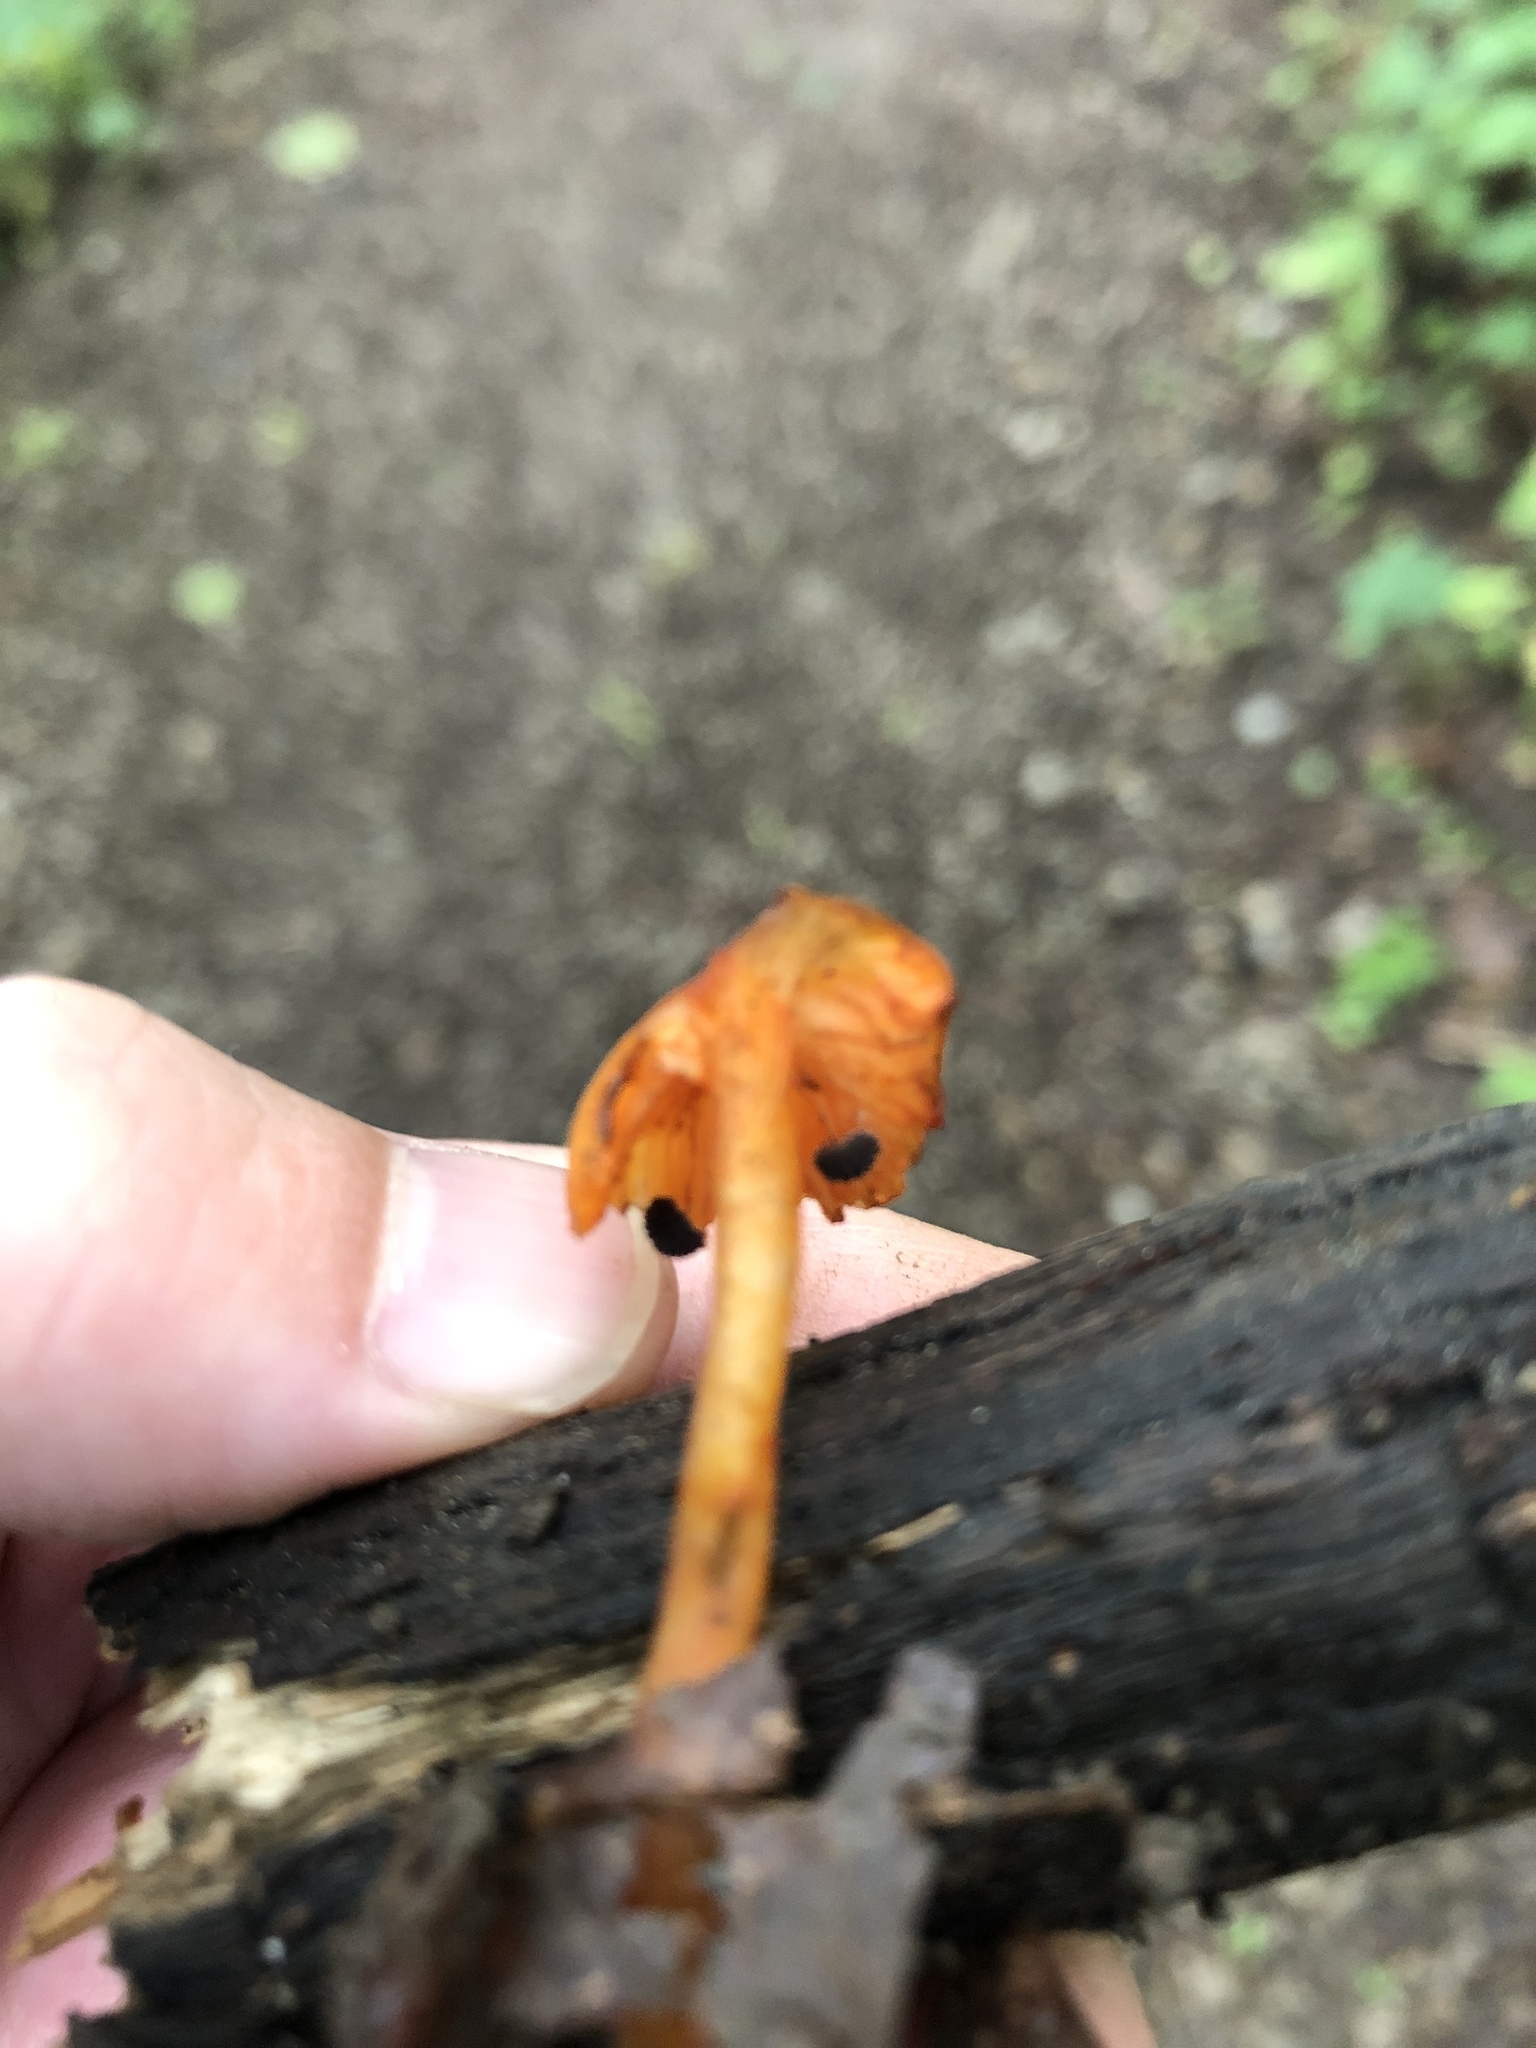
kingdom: Fungi
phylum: Basidiomycota
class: Agaricomycetes
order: Agaricales
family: Mycenaceae
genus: Mycena
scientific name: Mycena leaiana
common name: Orange mycena
